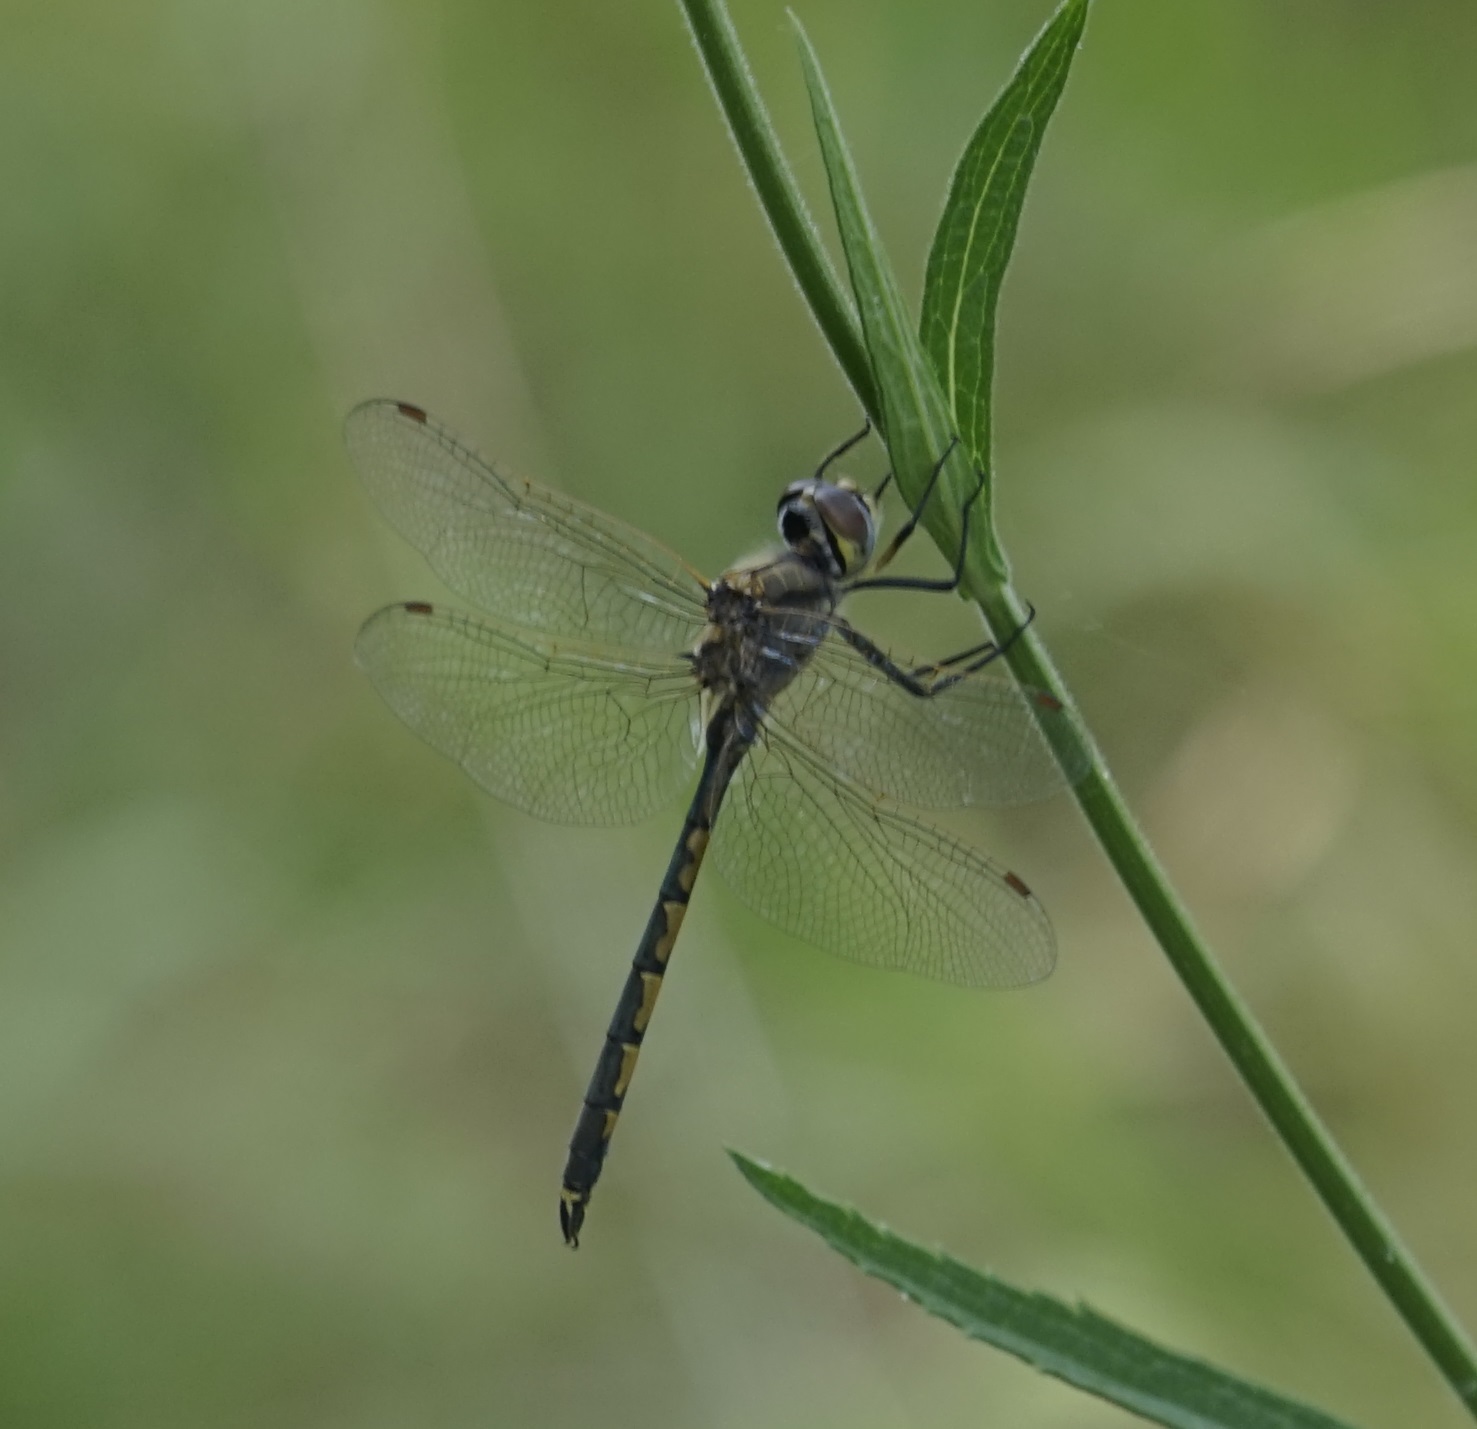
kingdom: Animalia
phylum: Arthropoda
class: Insecta
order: Odonata
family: Corduliidae
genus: Hemicordulia
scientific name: Hemicordulia tau
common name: Tau emerald
